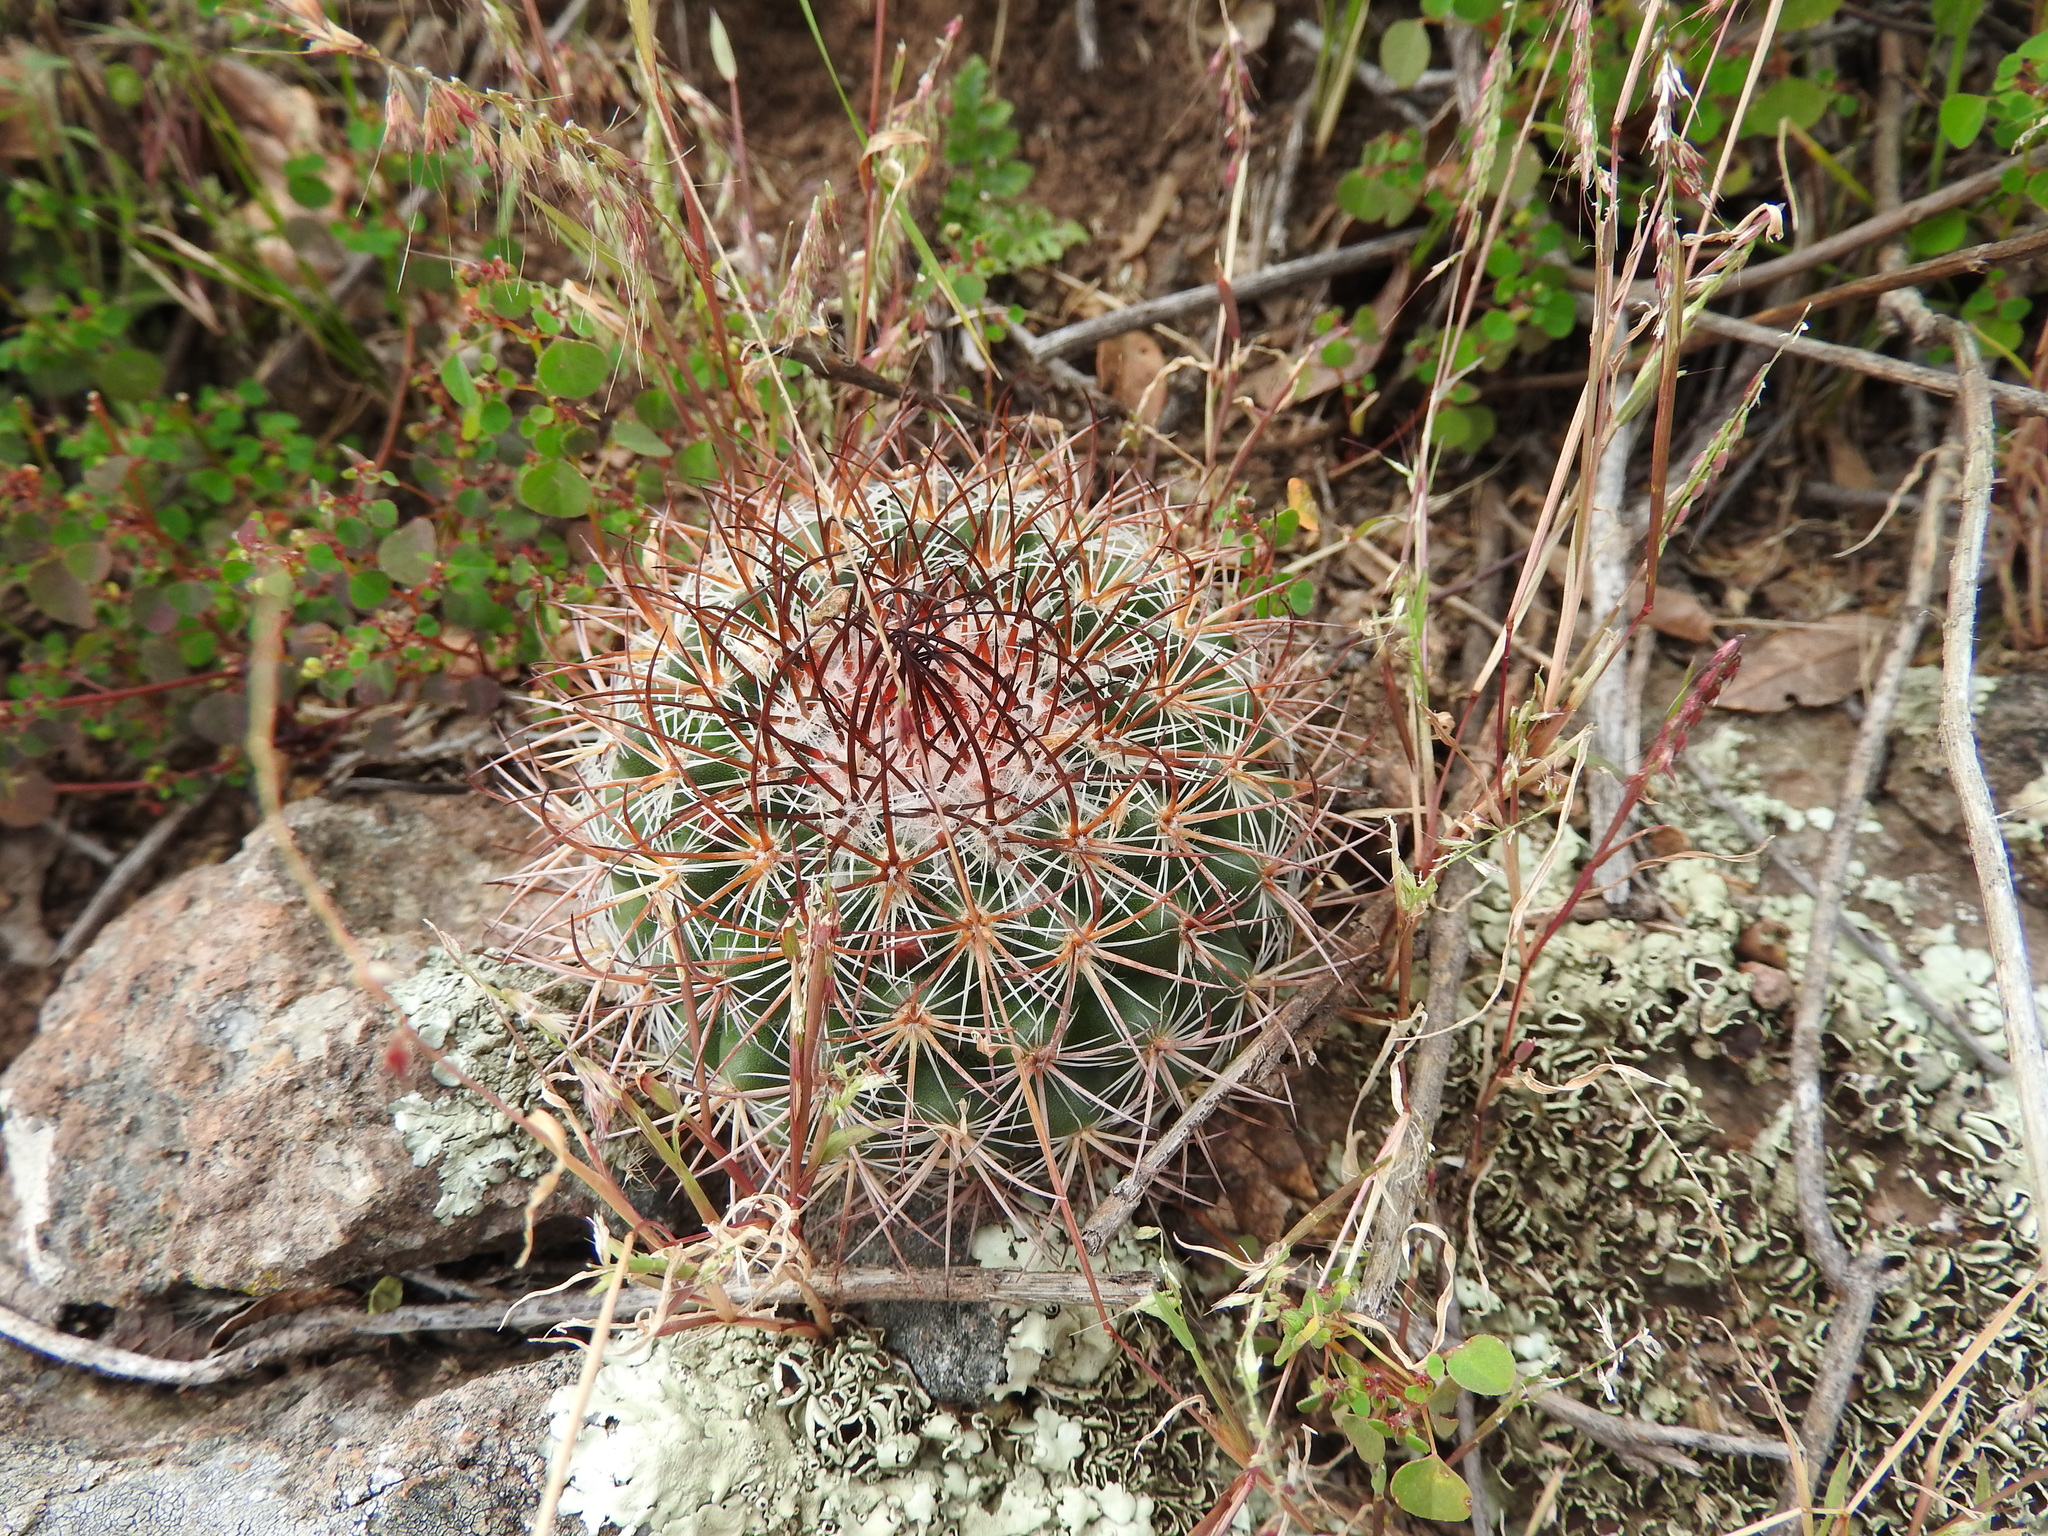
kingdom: Plantae
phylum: Tracheophyta
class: Magnoliopsida
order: Caryophyllales
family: Cactaceae
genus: Mammillaria
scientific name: Mammillaria rhodantha
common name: Rainbow pincushion
